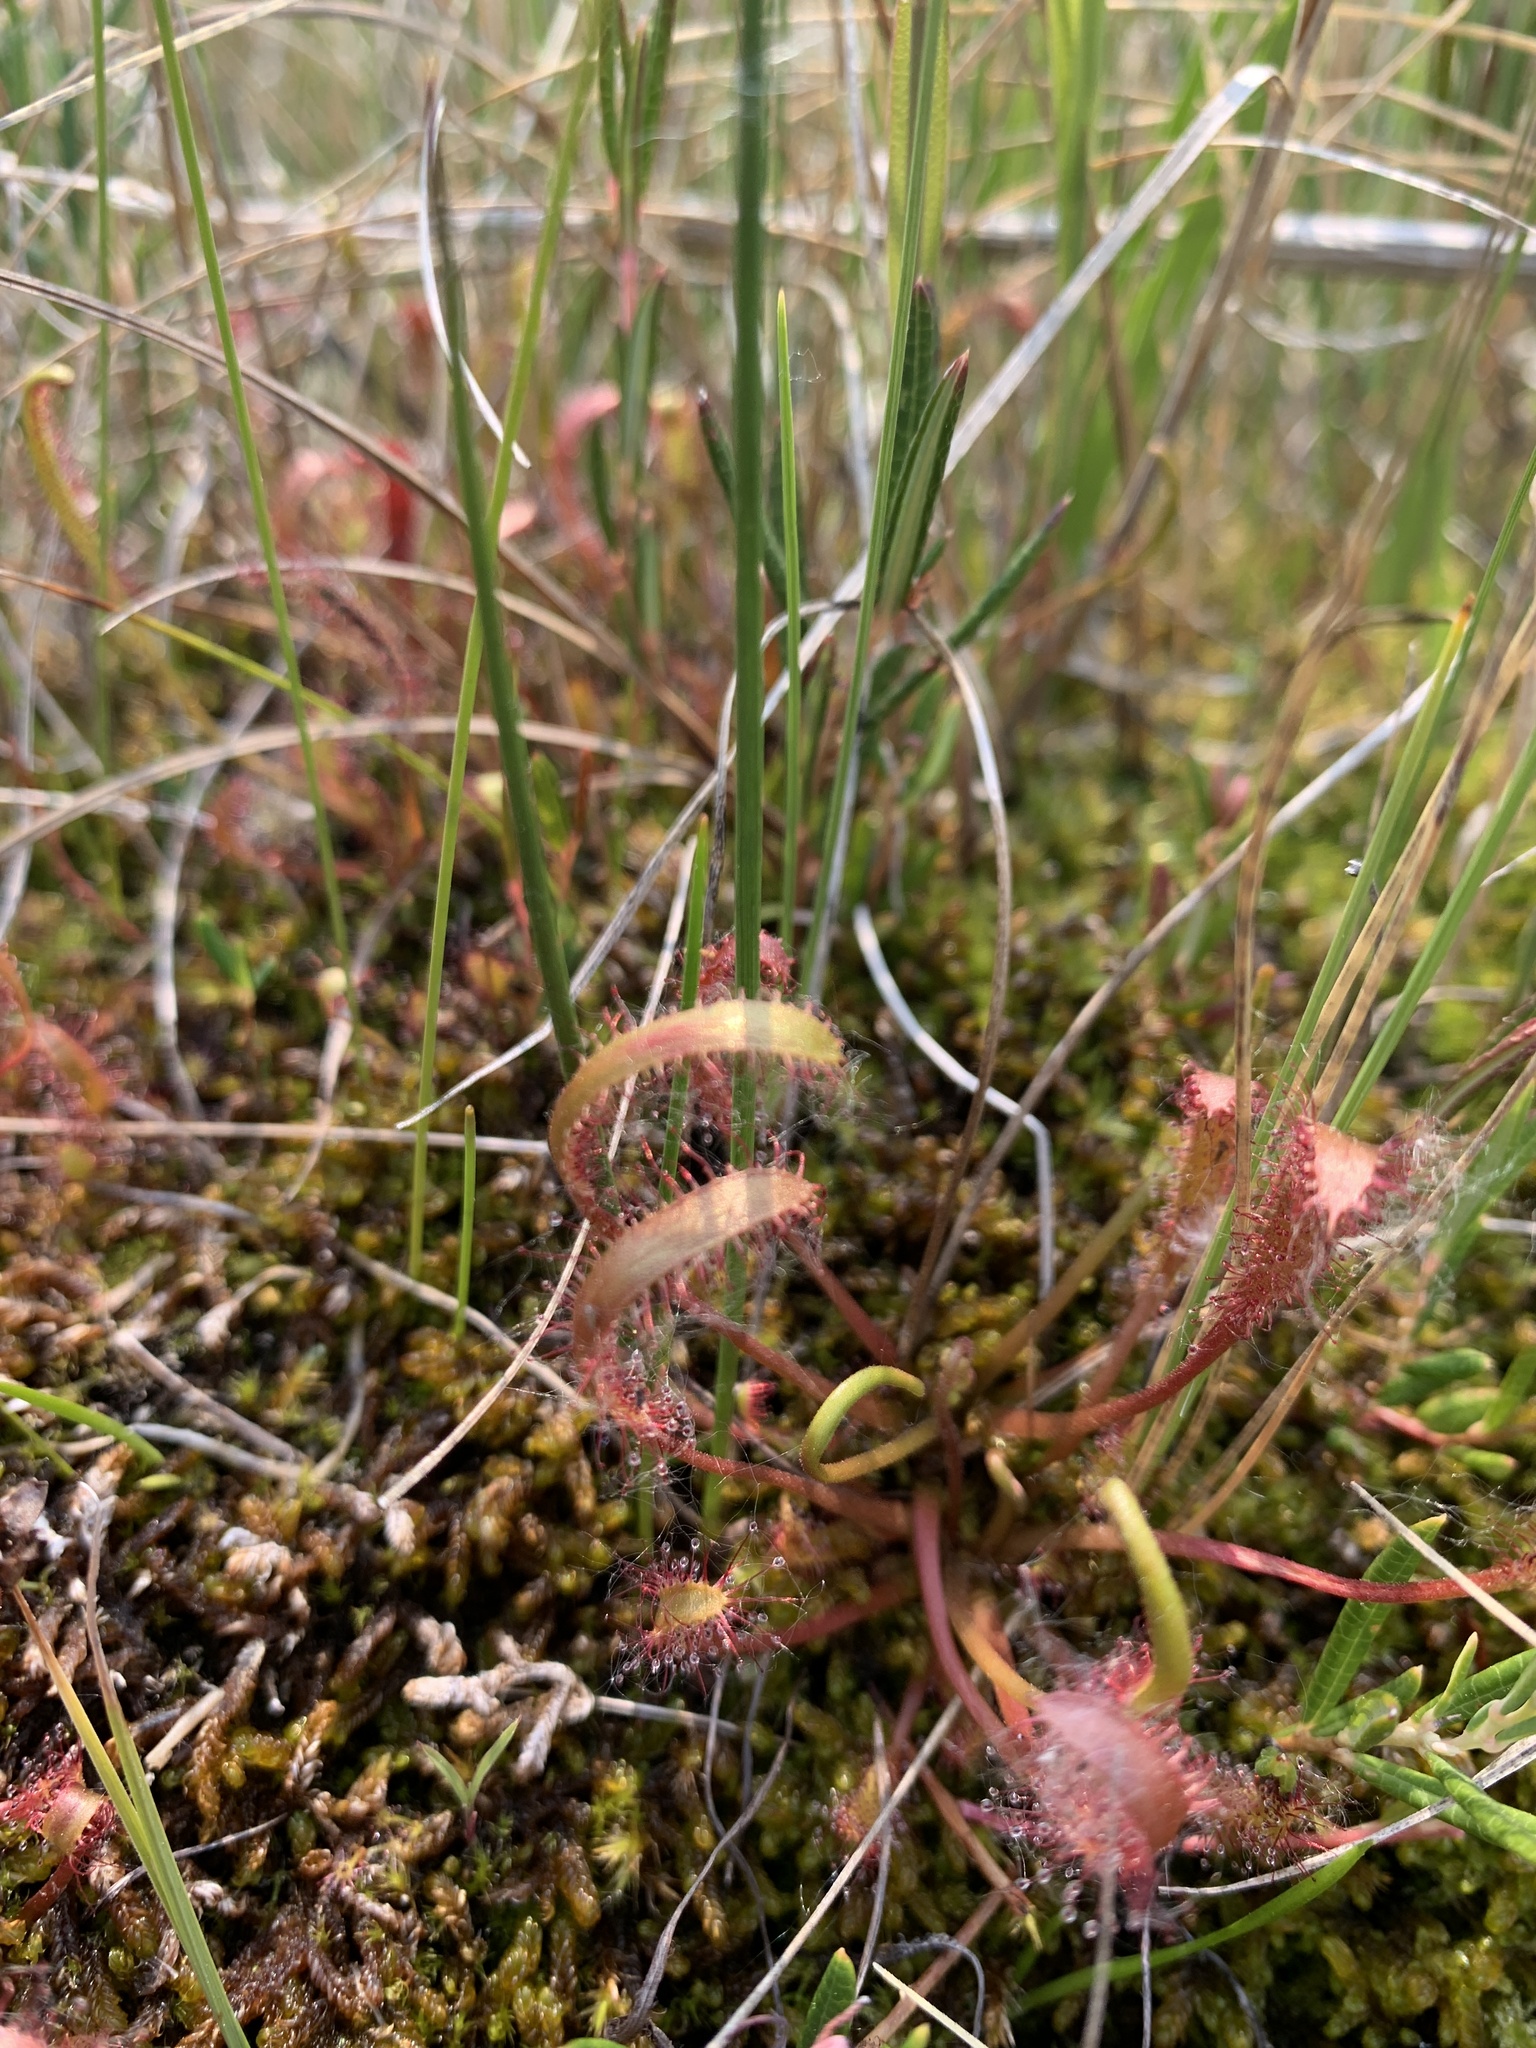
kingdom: Plantae
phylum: Tracheophyta
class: Magnoliopsida
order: Caryophyllales
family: Droseraceae
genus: Drosera
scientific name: Drosera linearis
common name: Linear-leaved sundew
